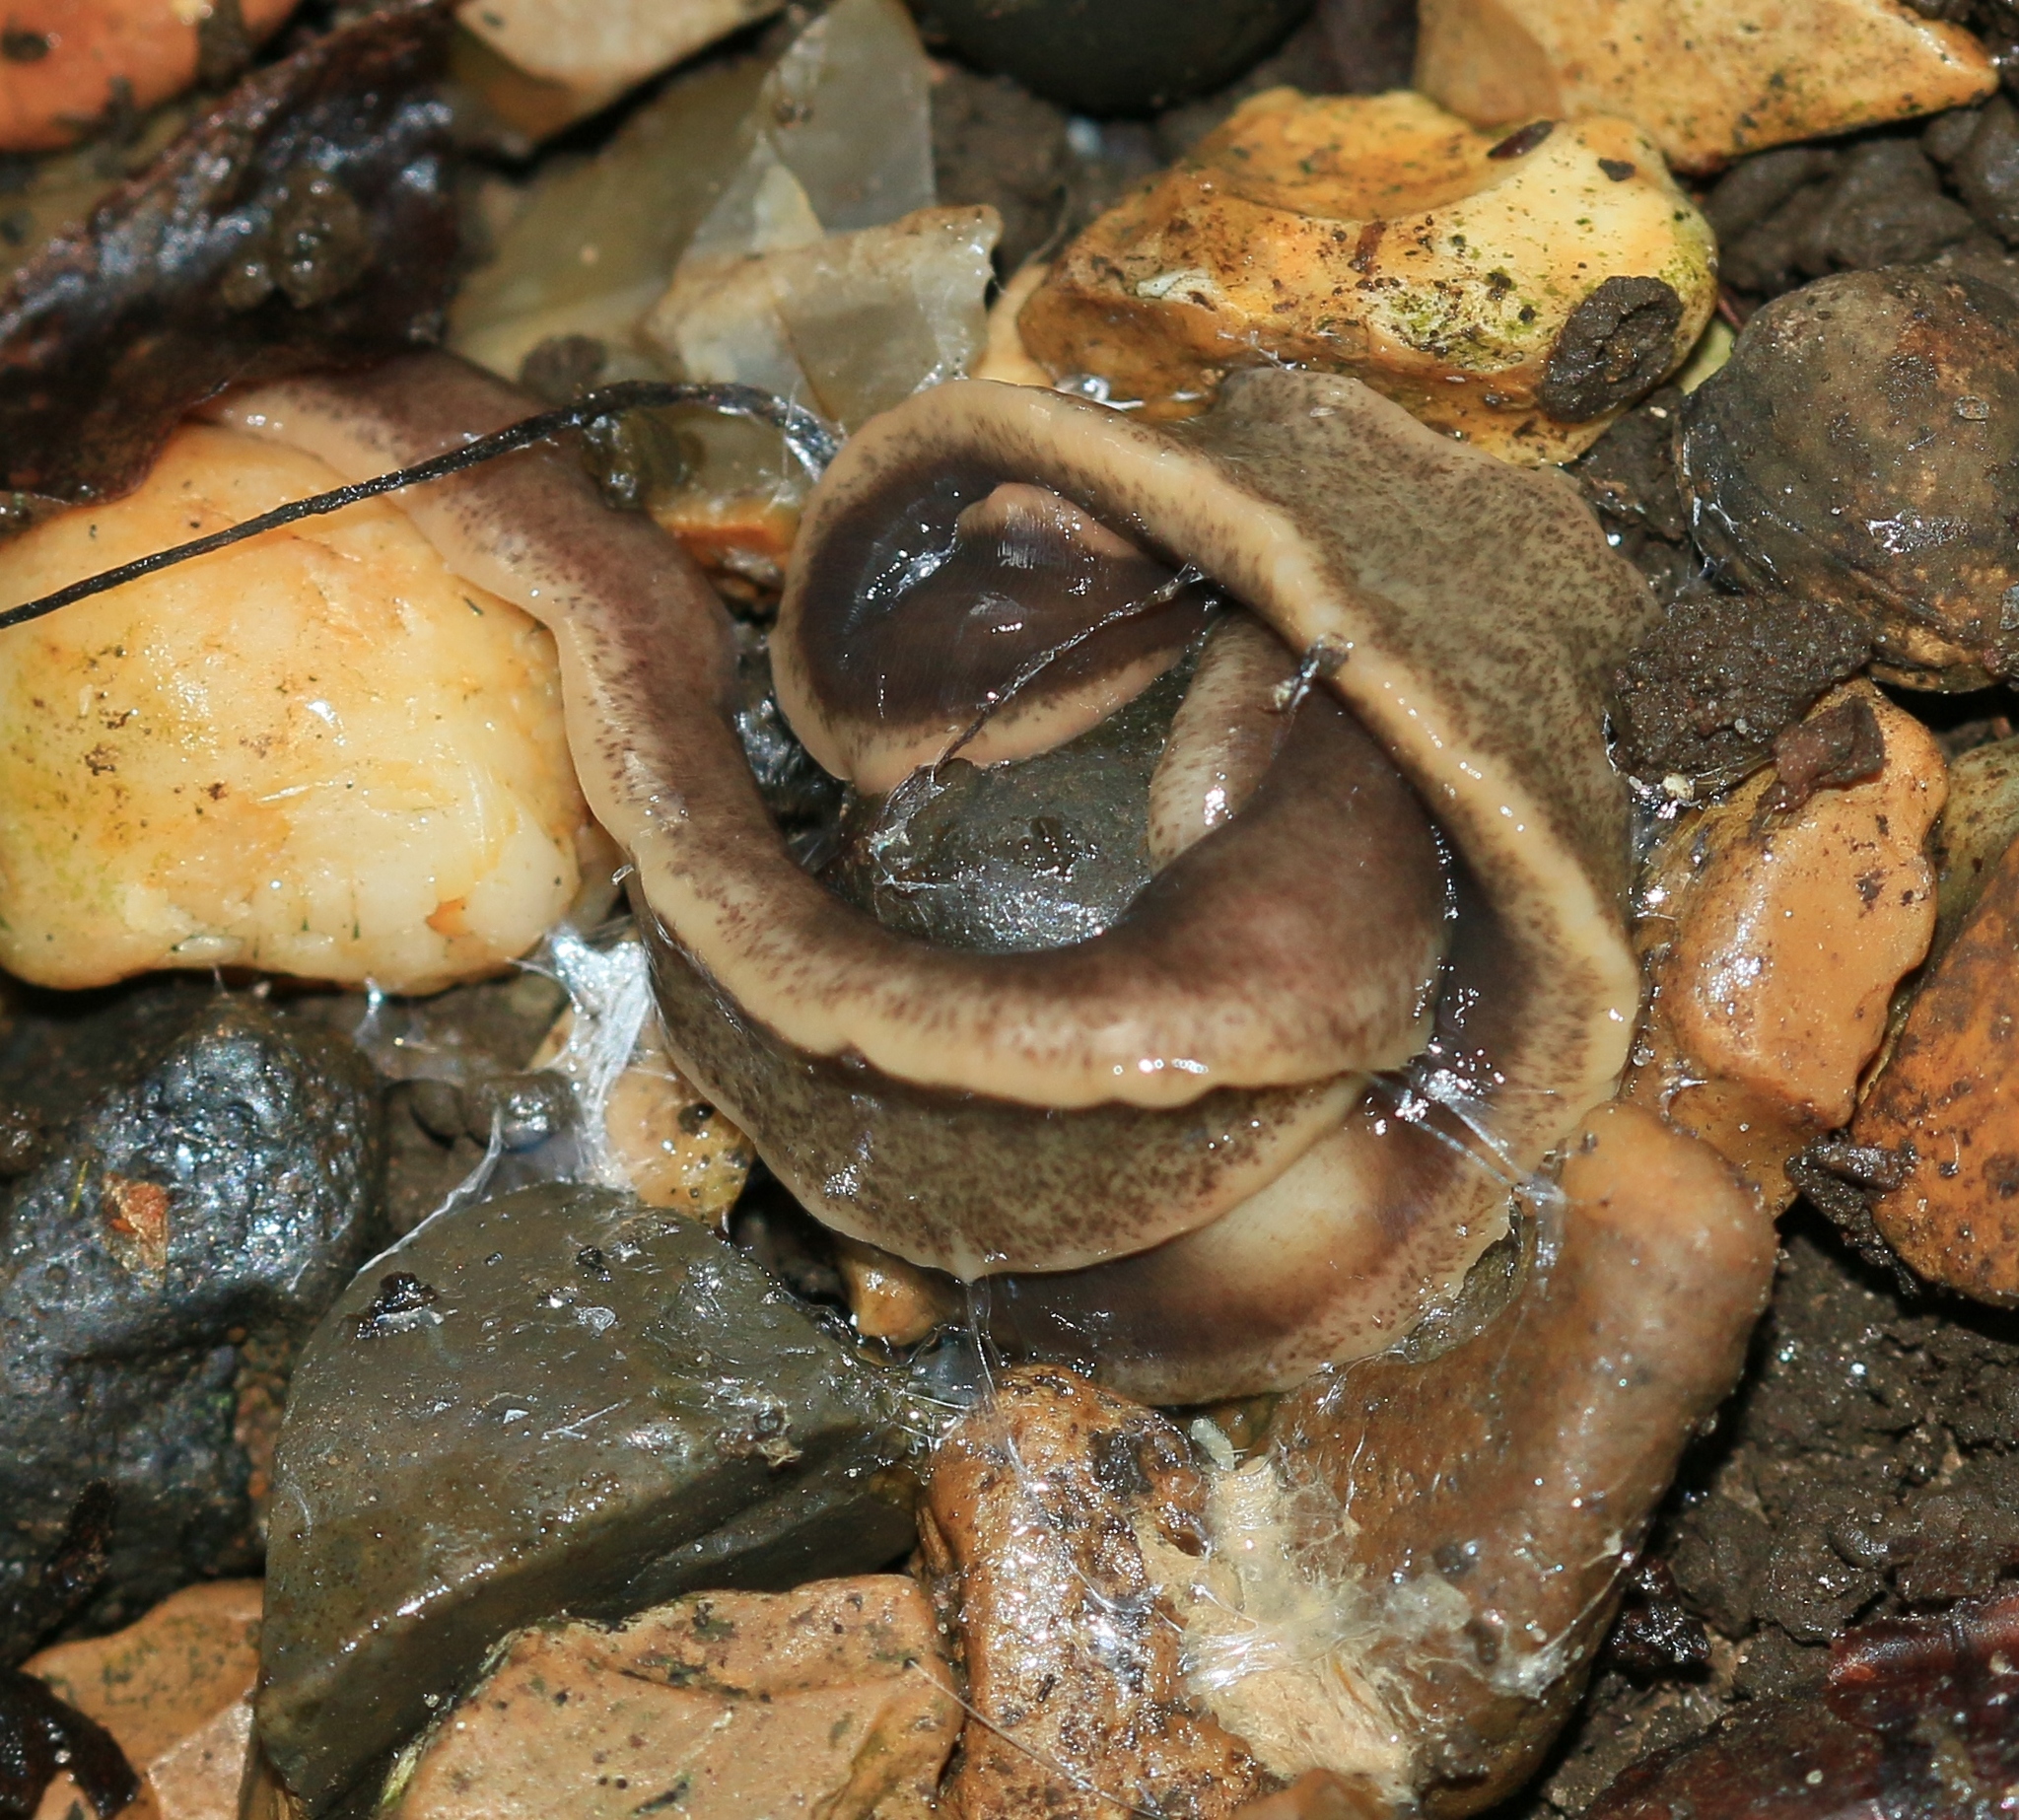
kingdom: Animalia
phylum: Platyhelminthes
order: Tricladida
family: Geoplanidae
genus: Arthurdendyus
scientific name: Arthurdendyus triangulatus
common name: New zealand flatworm
